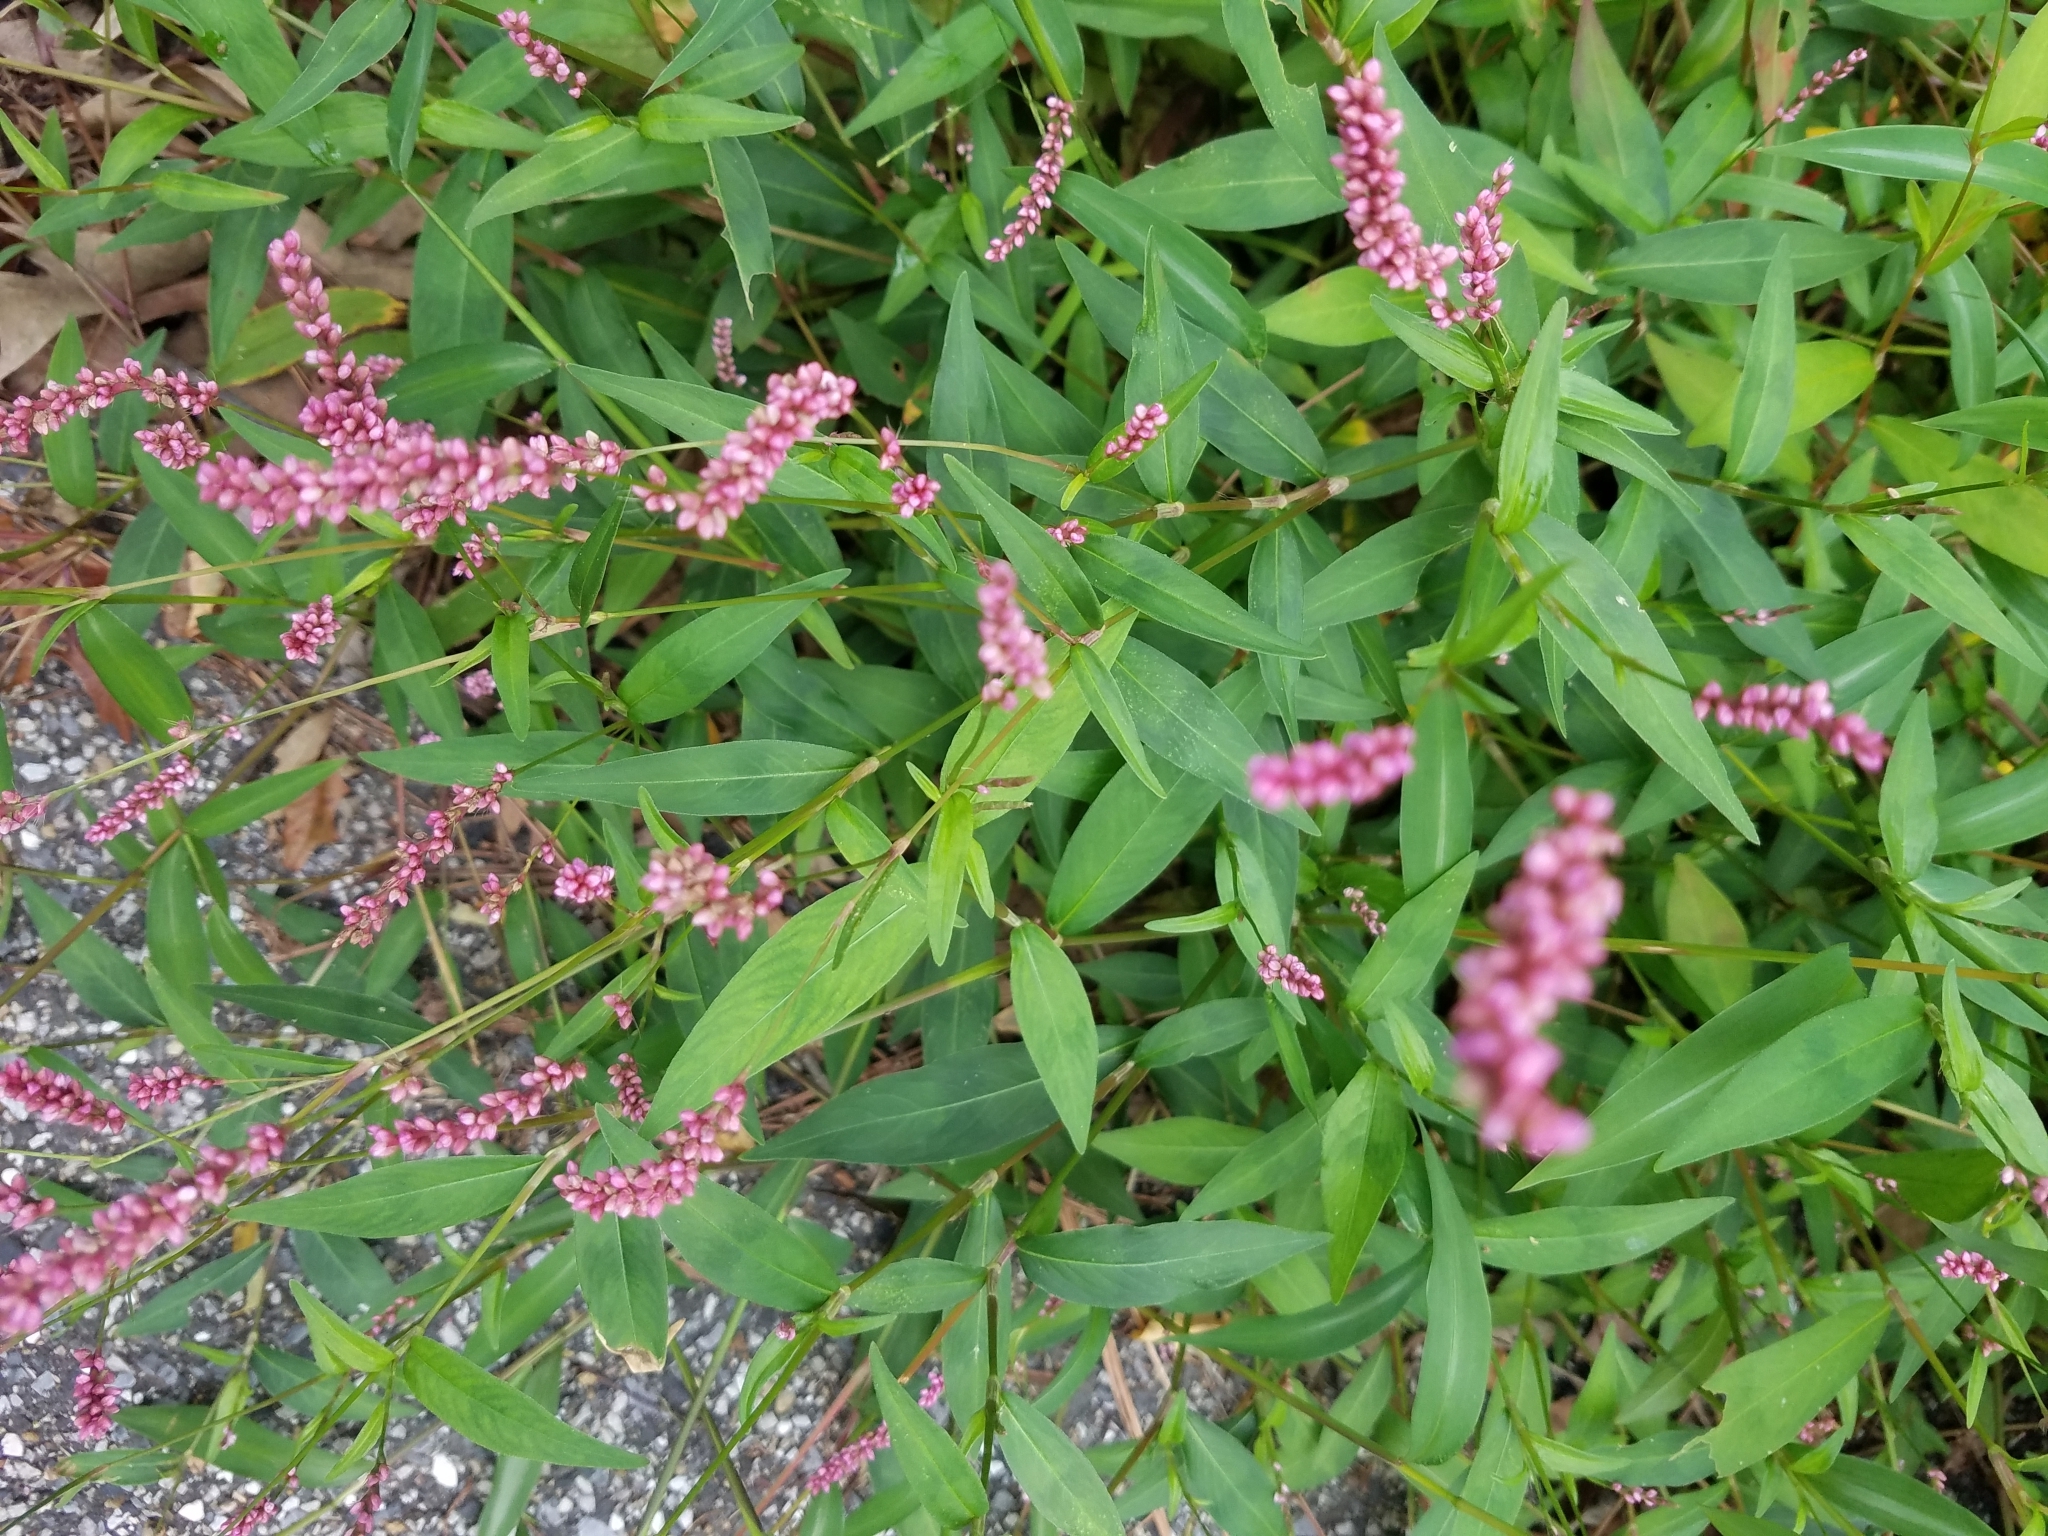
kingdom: Plantae
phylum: Tracheophyta
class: Magnoliopsida
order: Caryophyllales
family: Polygonaceae
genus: Persicaria
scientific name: Persicaria longiseta
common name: Bristly lady's-thumb
